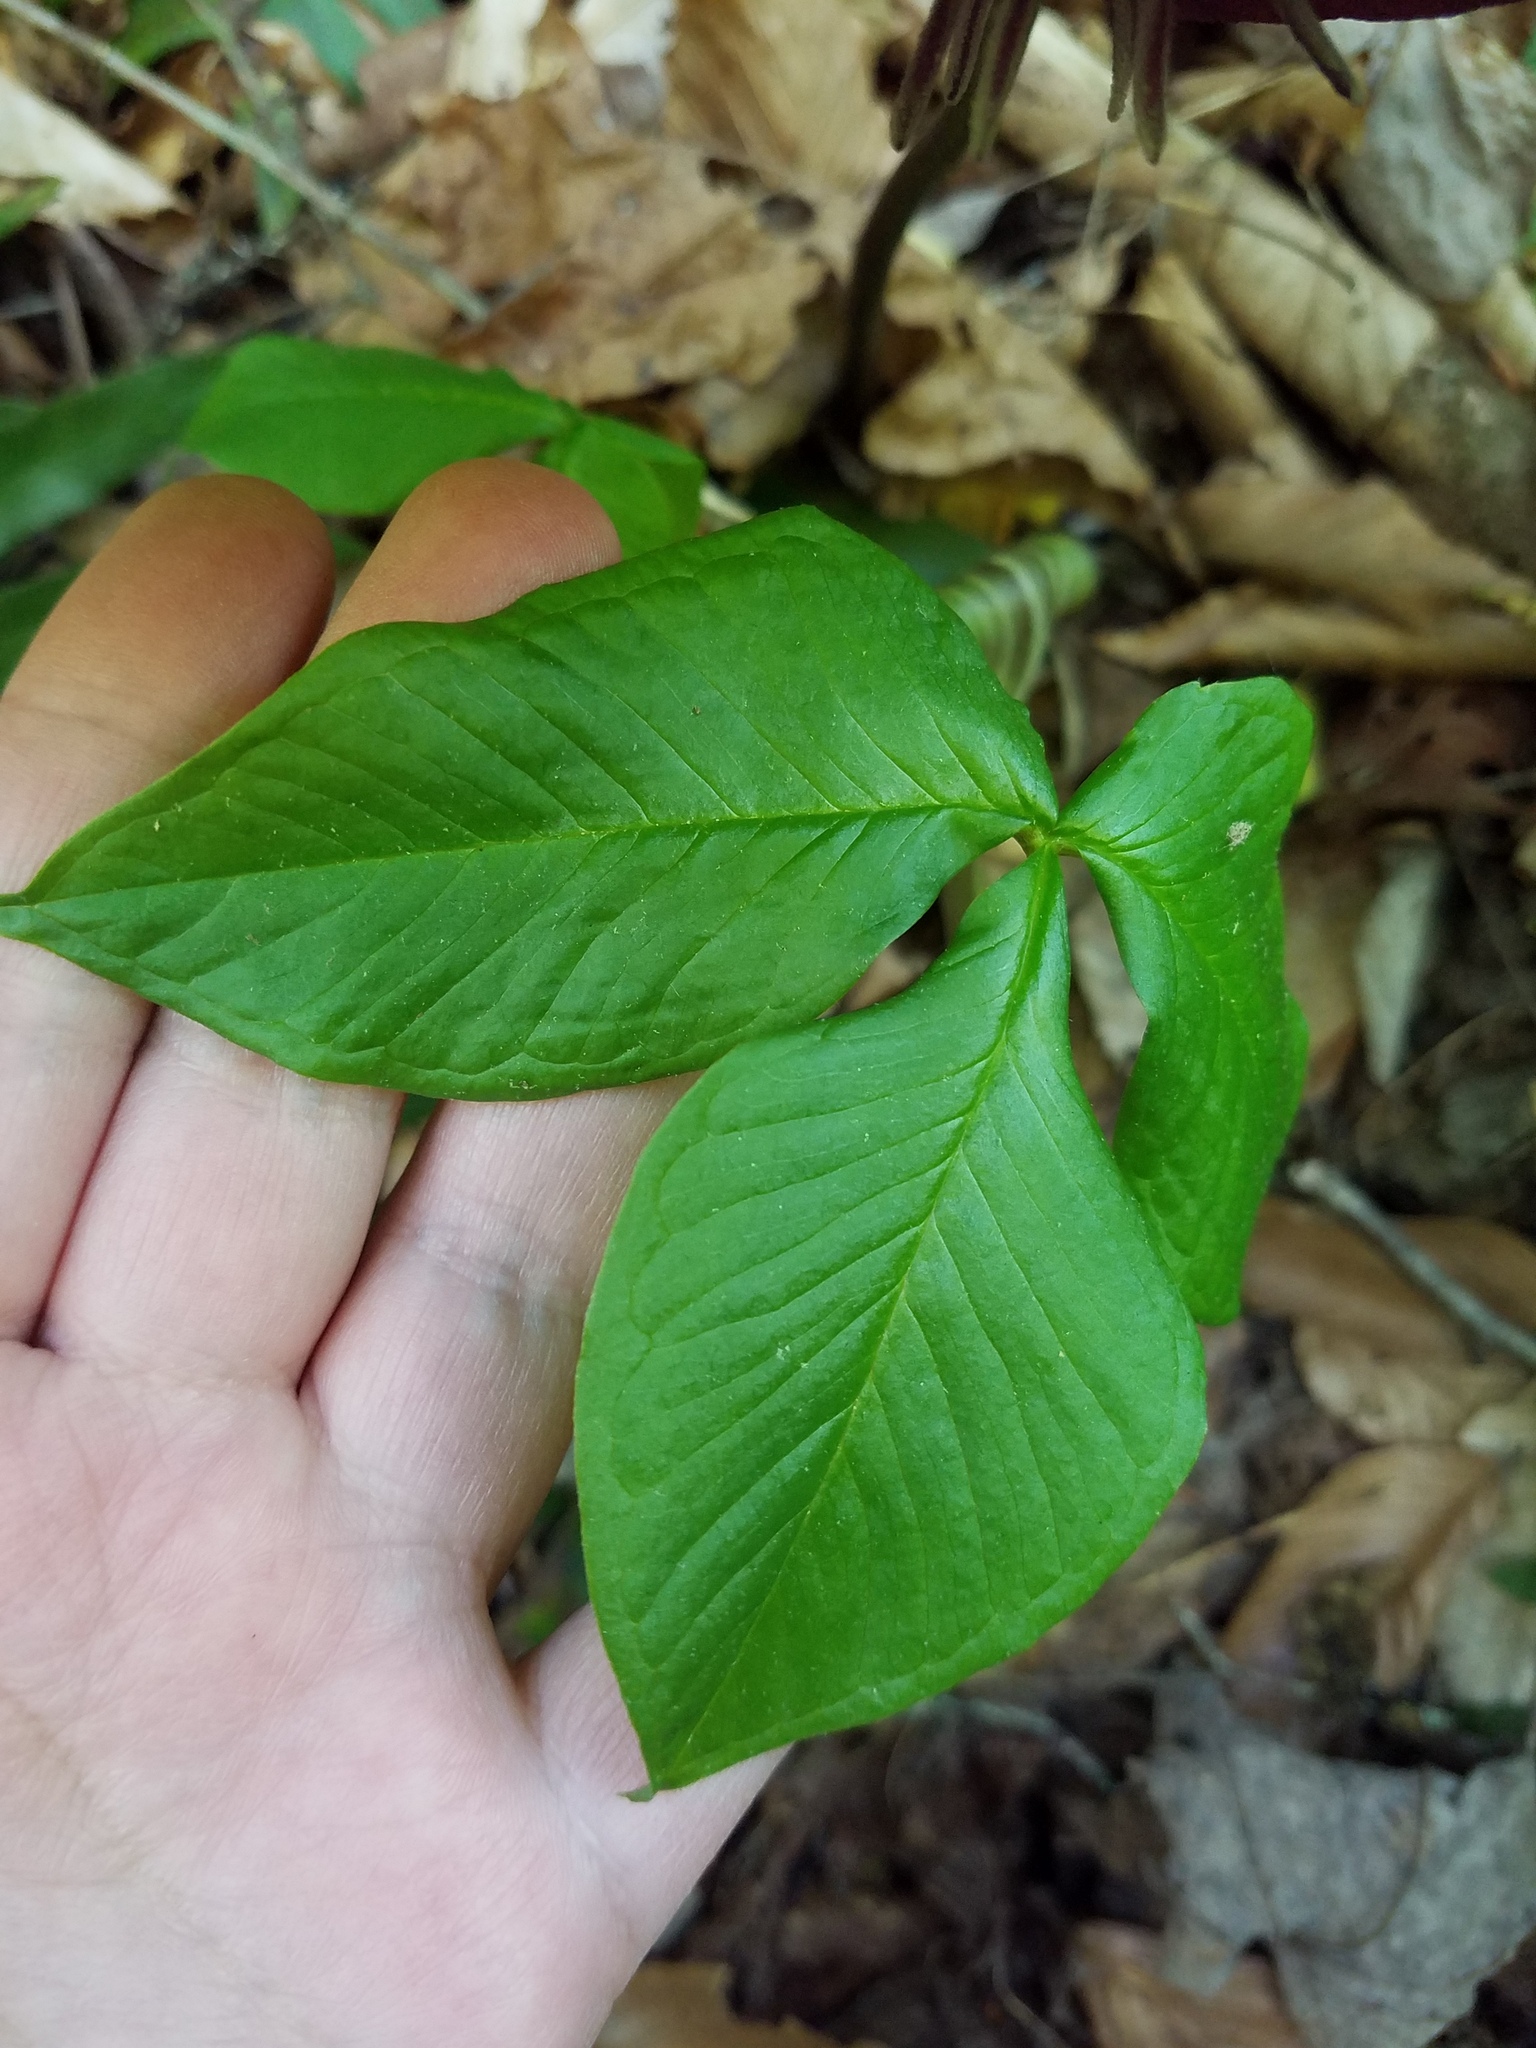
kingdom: Plantae
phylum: Tracheophyta
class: Liliopsida
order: Alismatales
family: Araceae
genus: Arisaema
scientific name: Arisaema triphyllum
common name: Jack-in-the-pulpit
